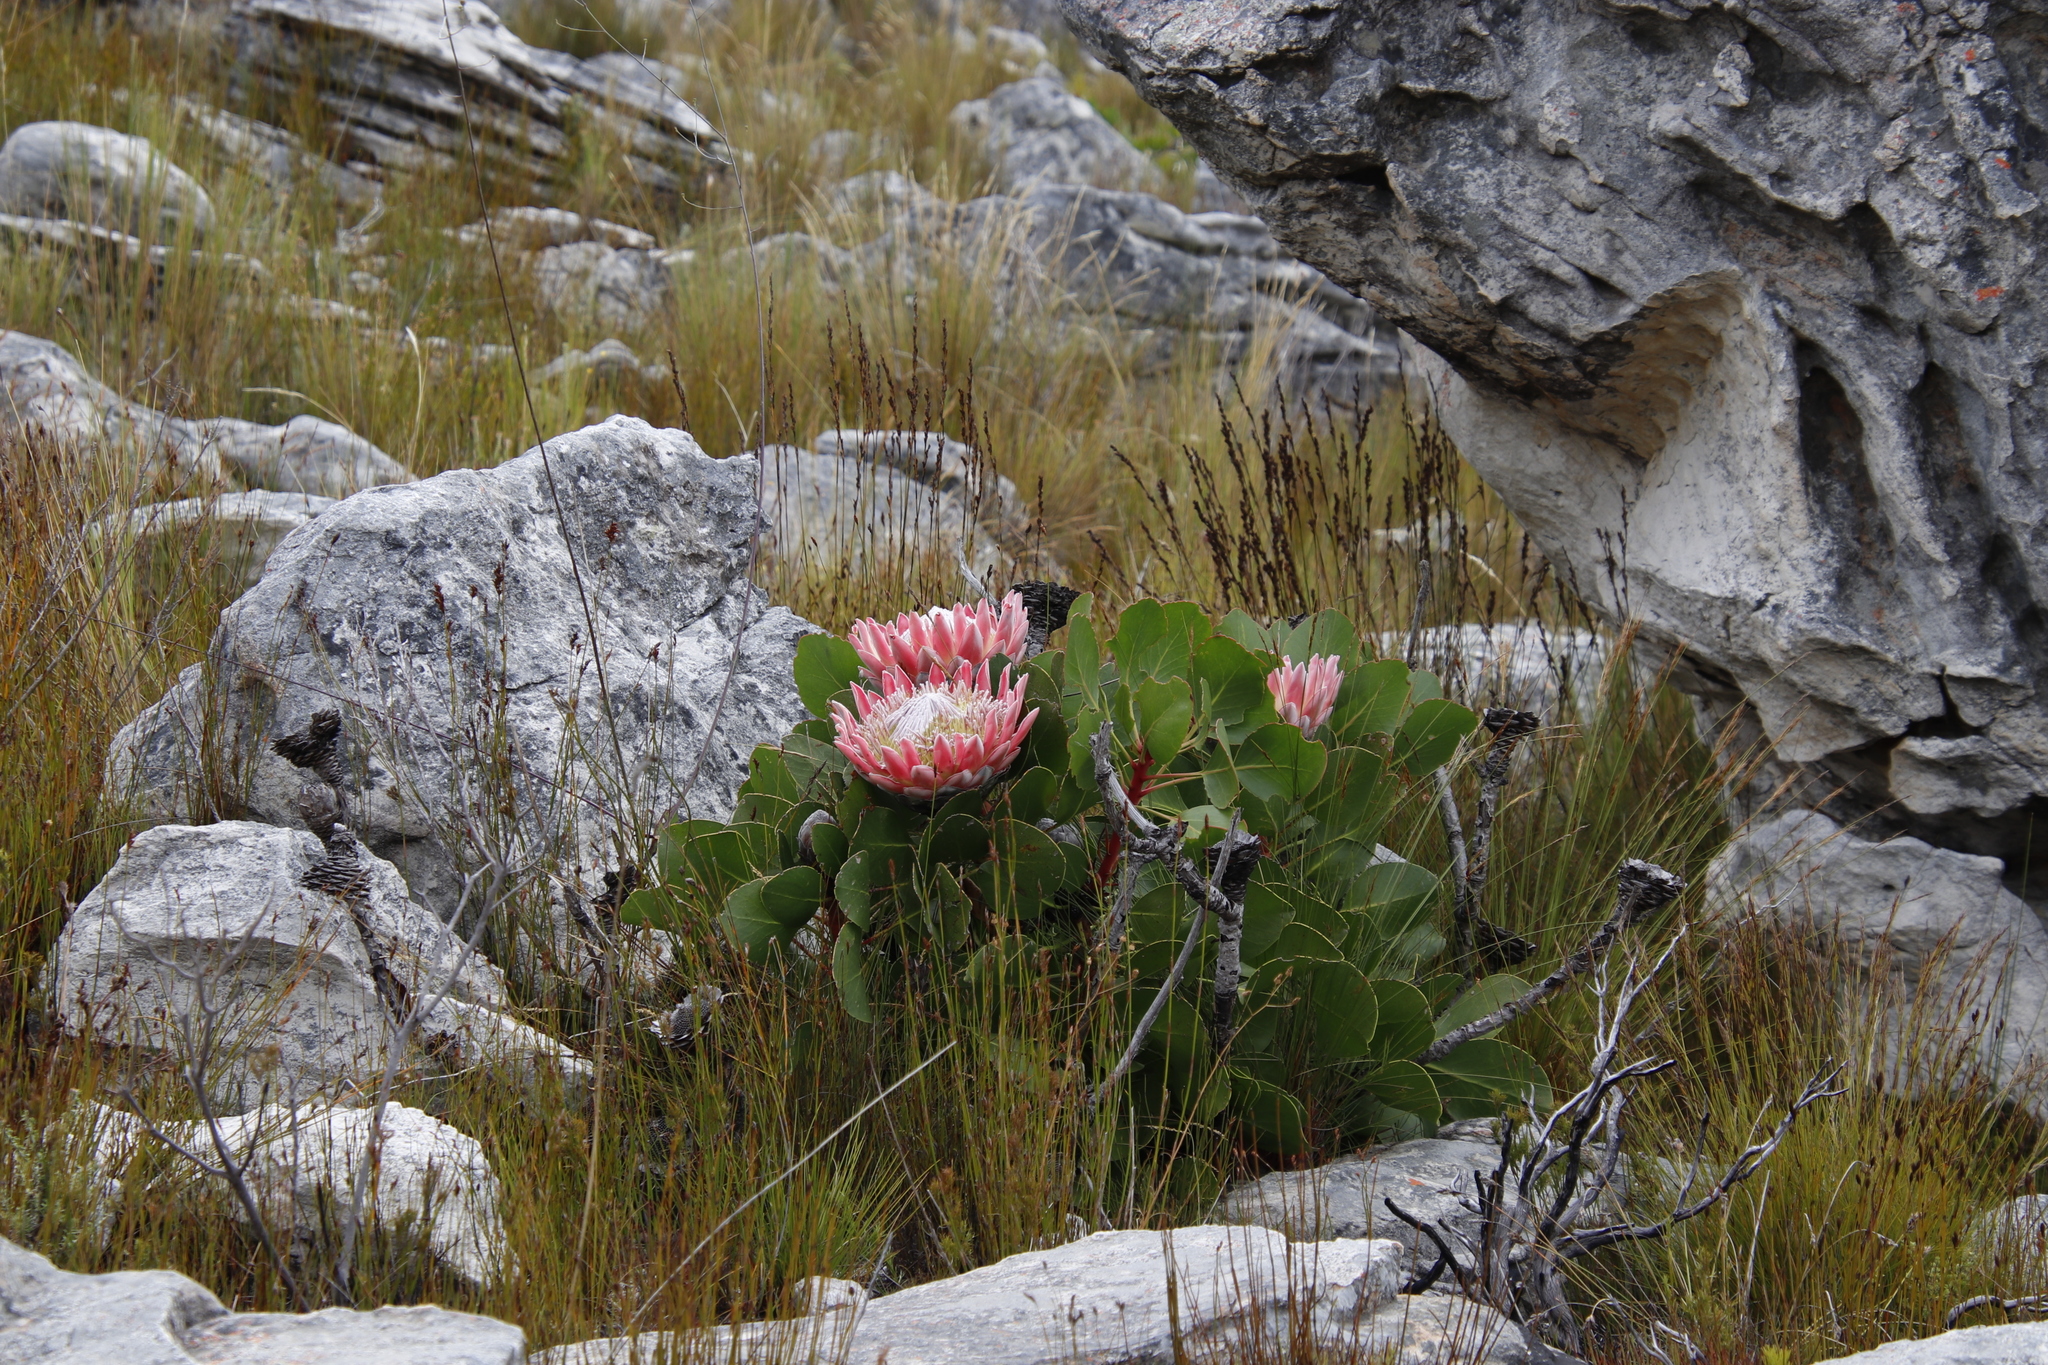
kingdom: Plantae
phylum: Tracheophyta
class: Magnoliopsida
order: Proteales
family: Proteaceae
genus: Protea
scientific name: Protea cynaroides
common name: King protea
